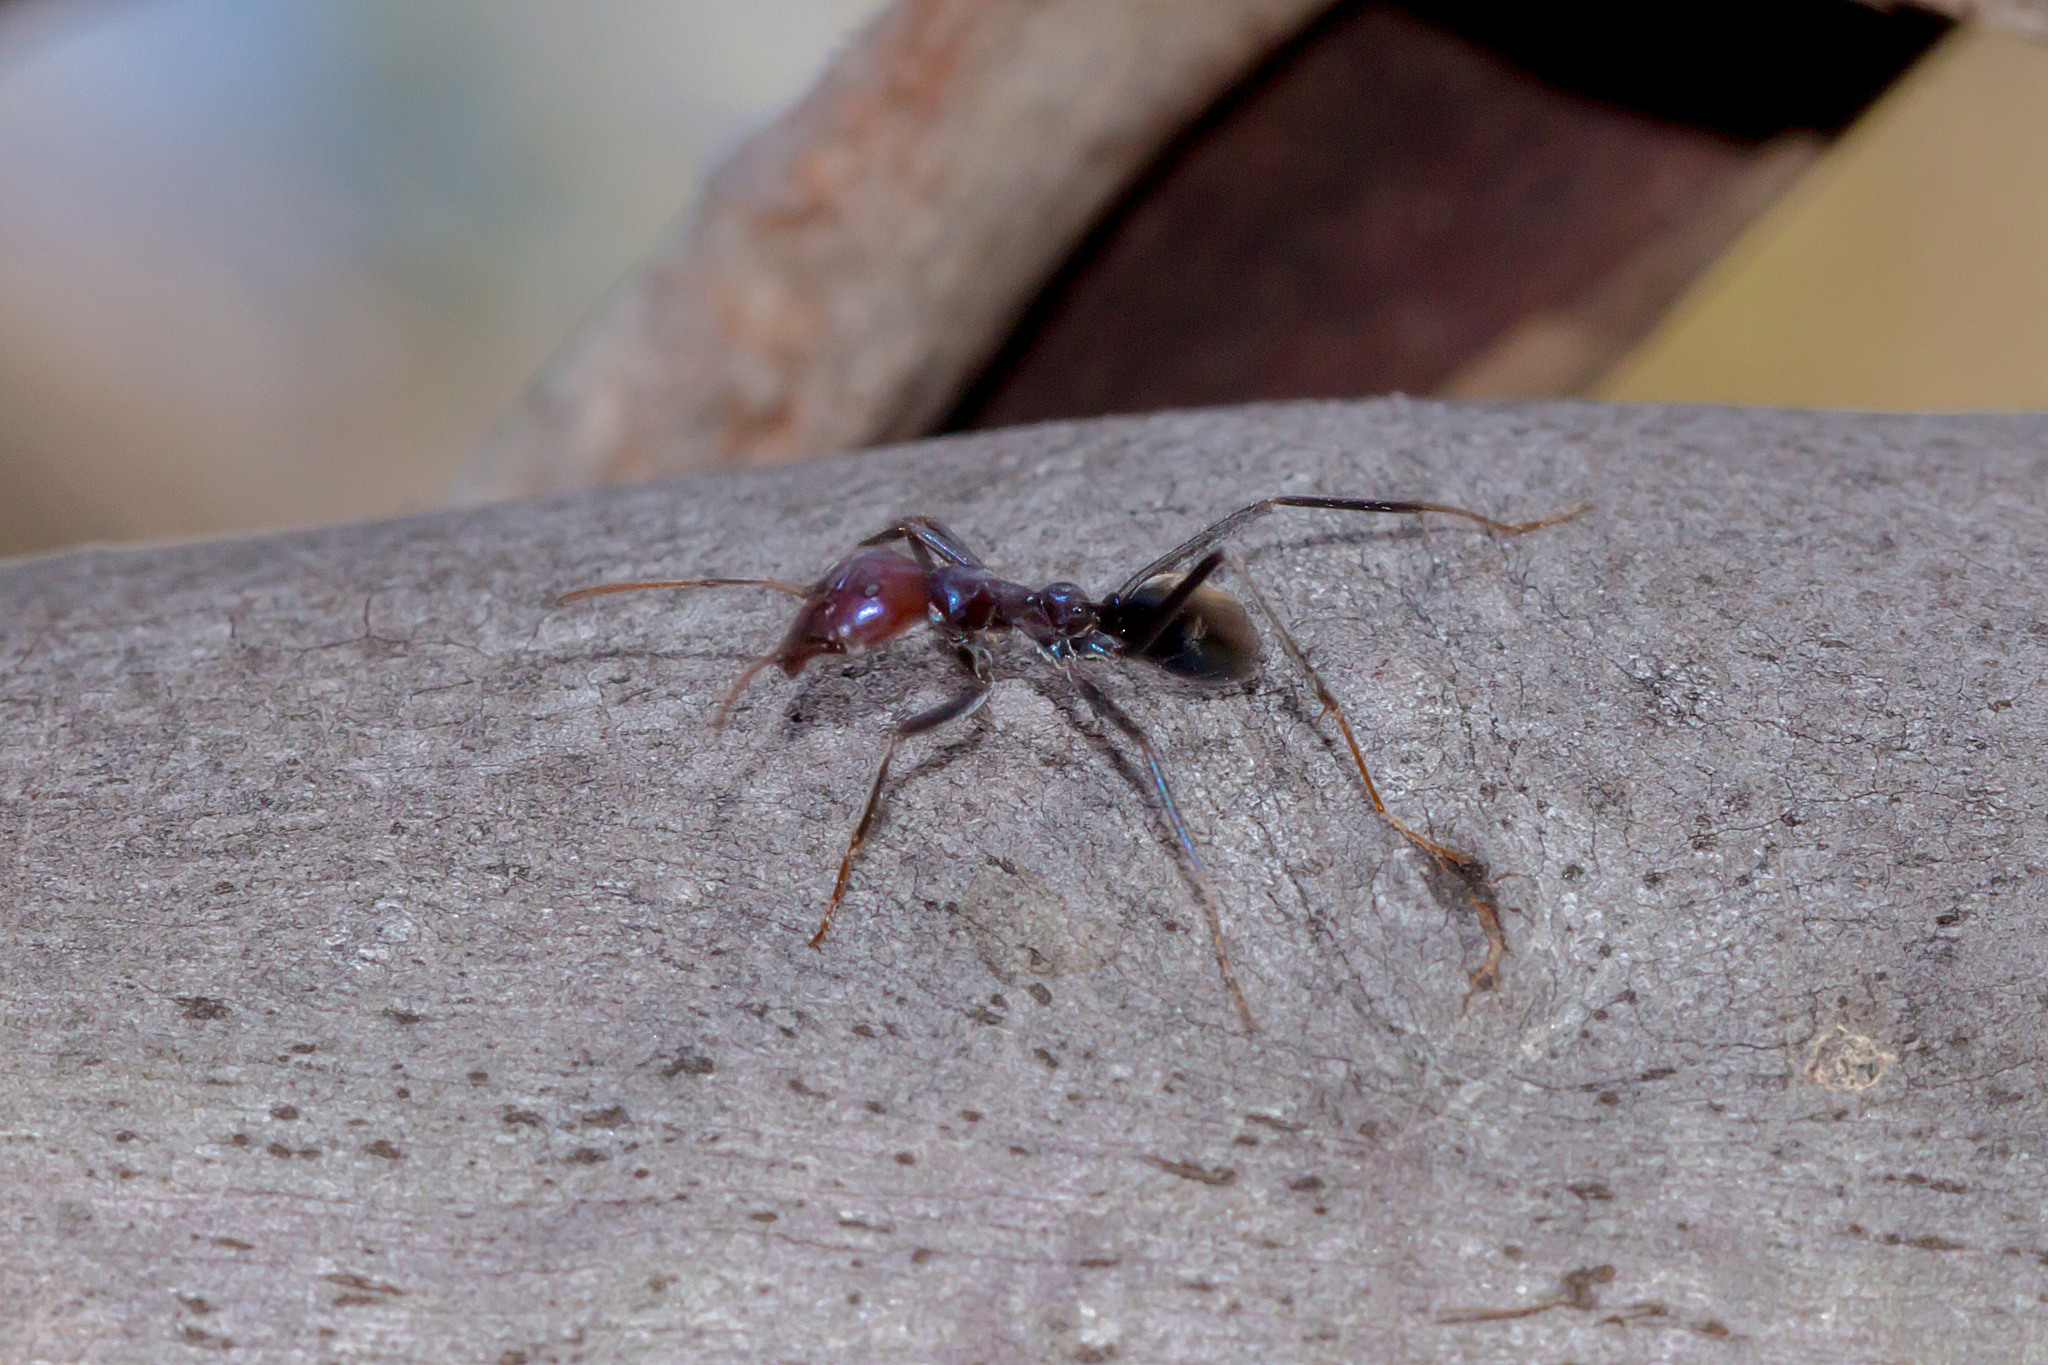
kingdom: Animalia
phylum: Arthropoda
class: Insecta
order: Hymenoptera
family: Formicidae
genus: Iridomyrmex
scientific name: Iridomyrmex purpureus
